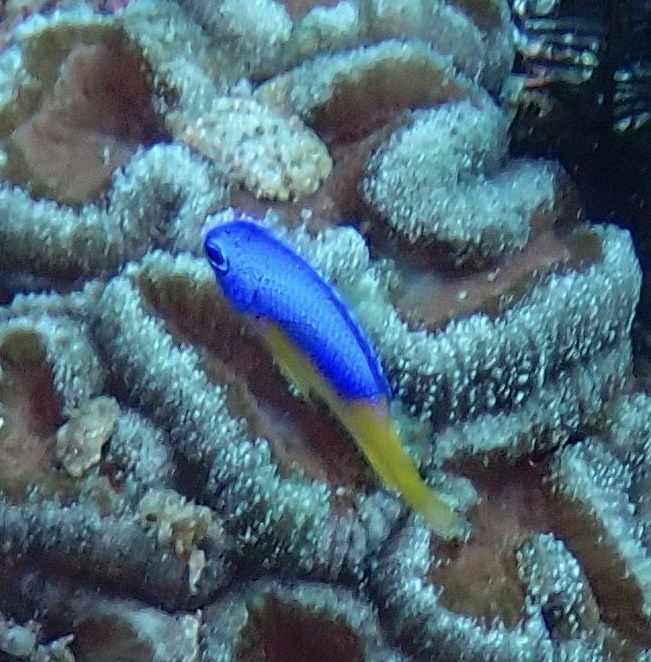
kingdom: Animalia
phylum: Chordata
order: Perciformes
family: Pomacentridae
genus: Pomacentrus
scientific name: Pomacentrus auriventris
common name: Goldbelly damsel
